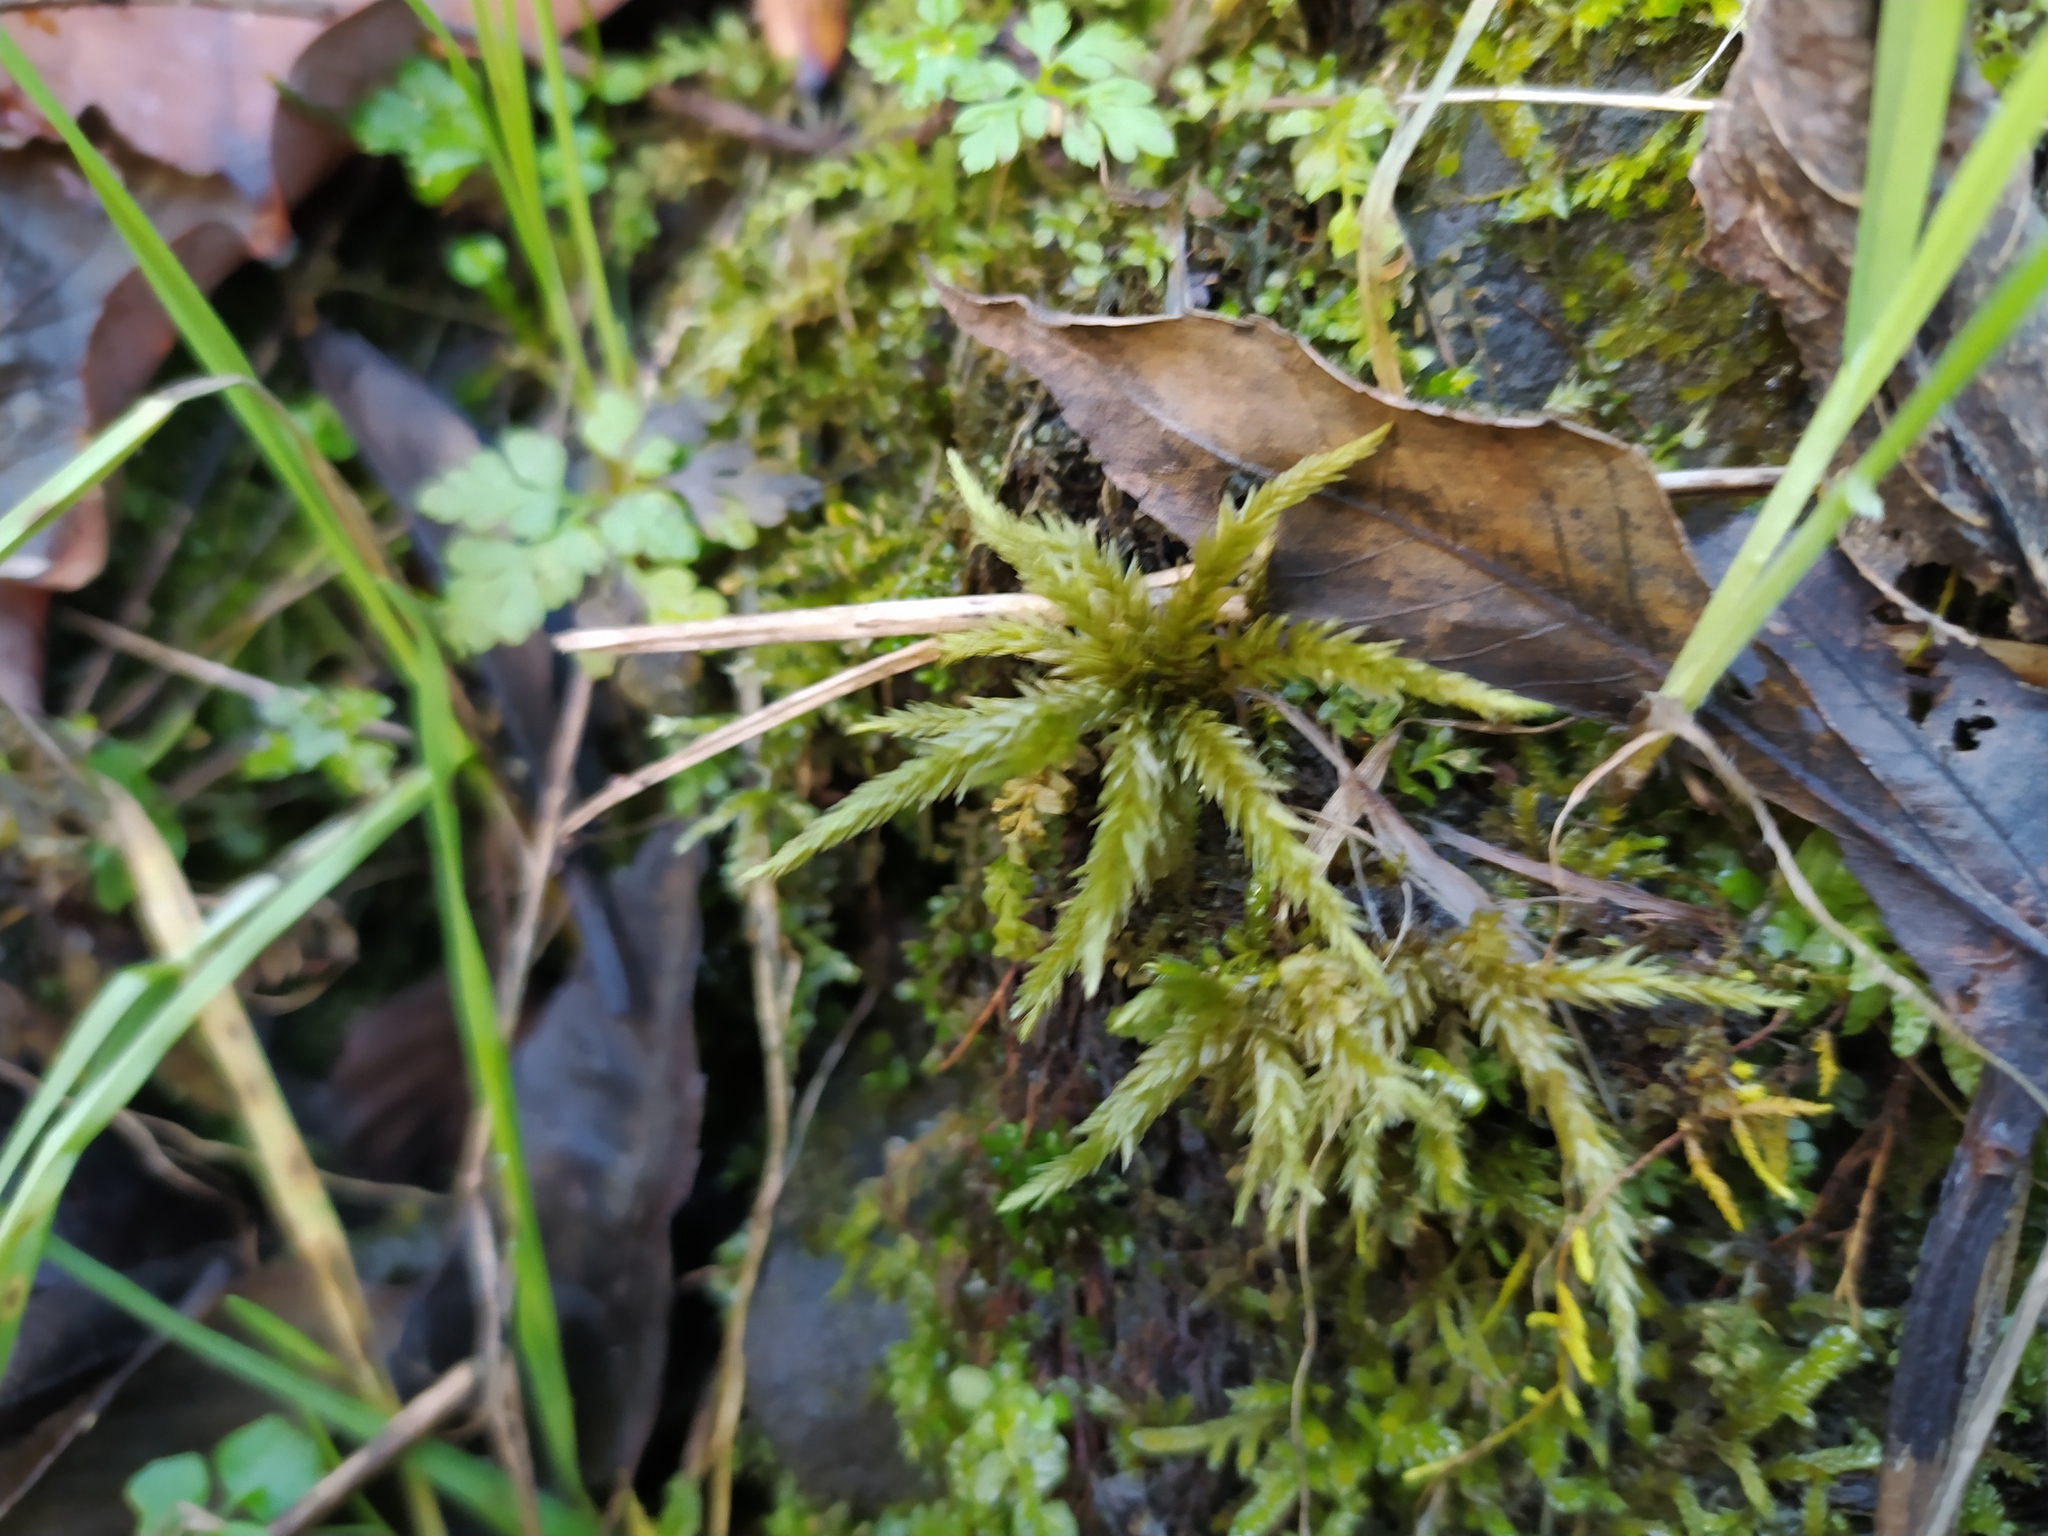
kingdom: Plantae
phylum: Bryophyta
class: Bryopsida
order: Hypnales
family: Climaciaceae
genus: Climacium
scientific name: Climacium dendroides
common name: Northern tree moss
